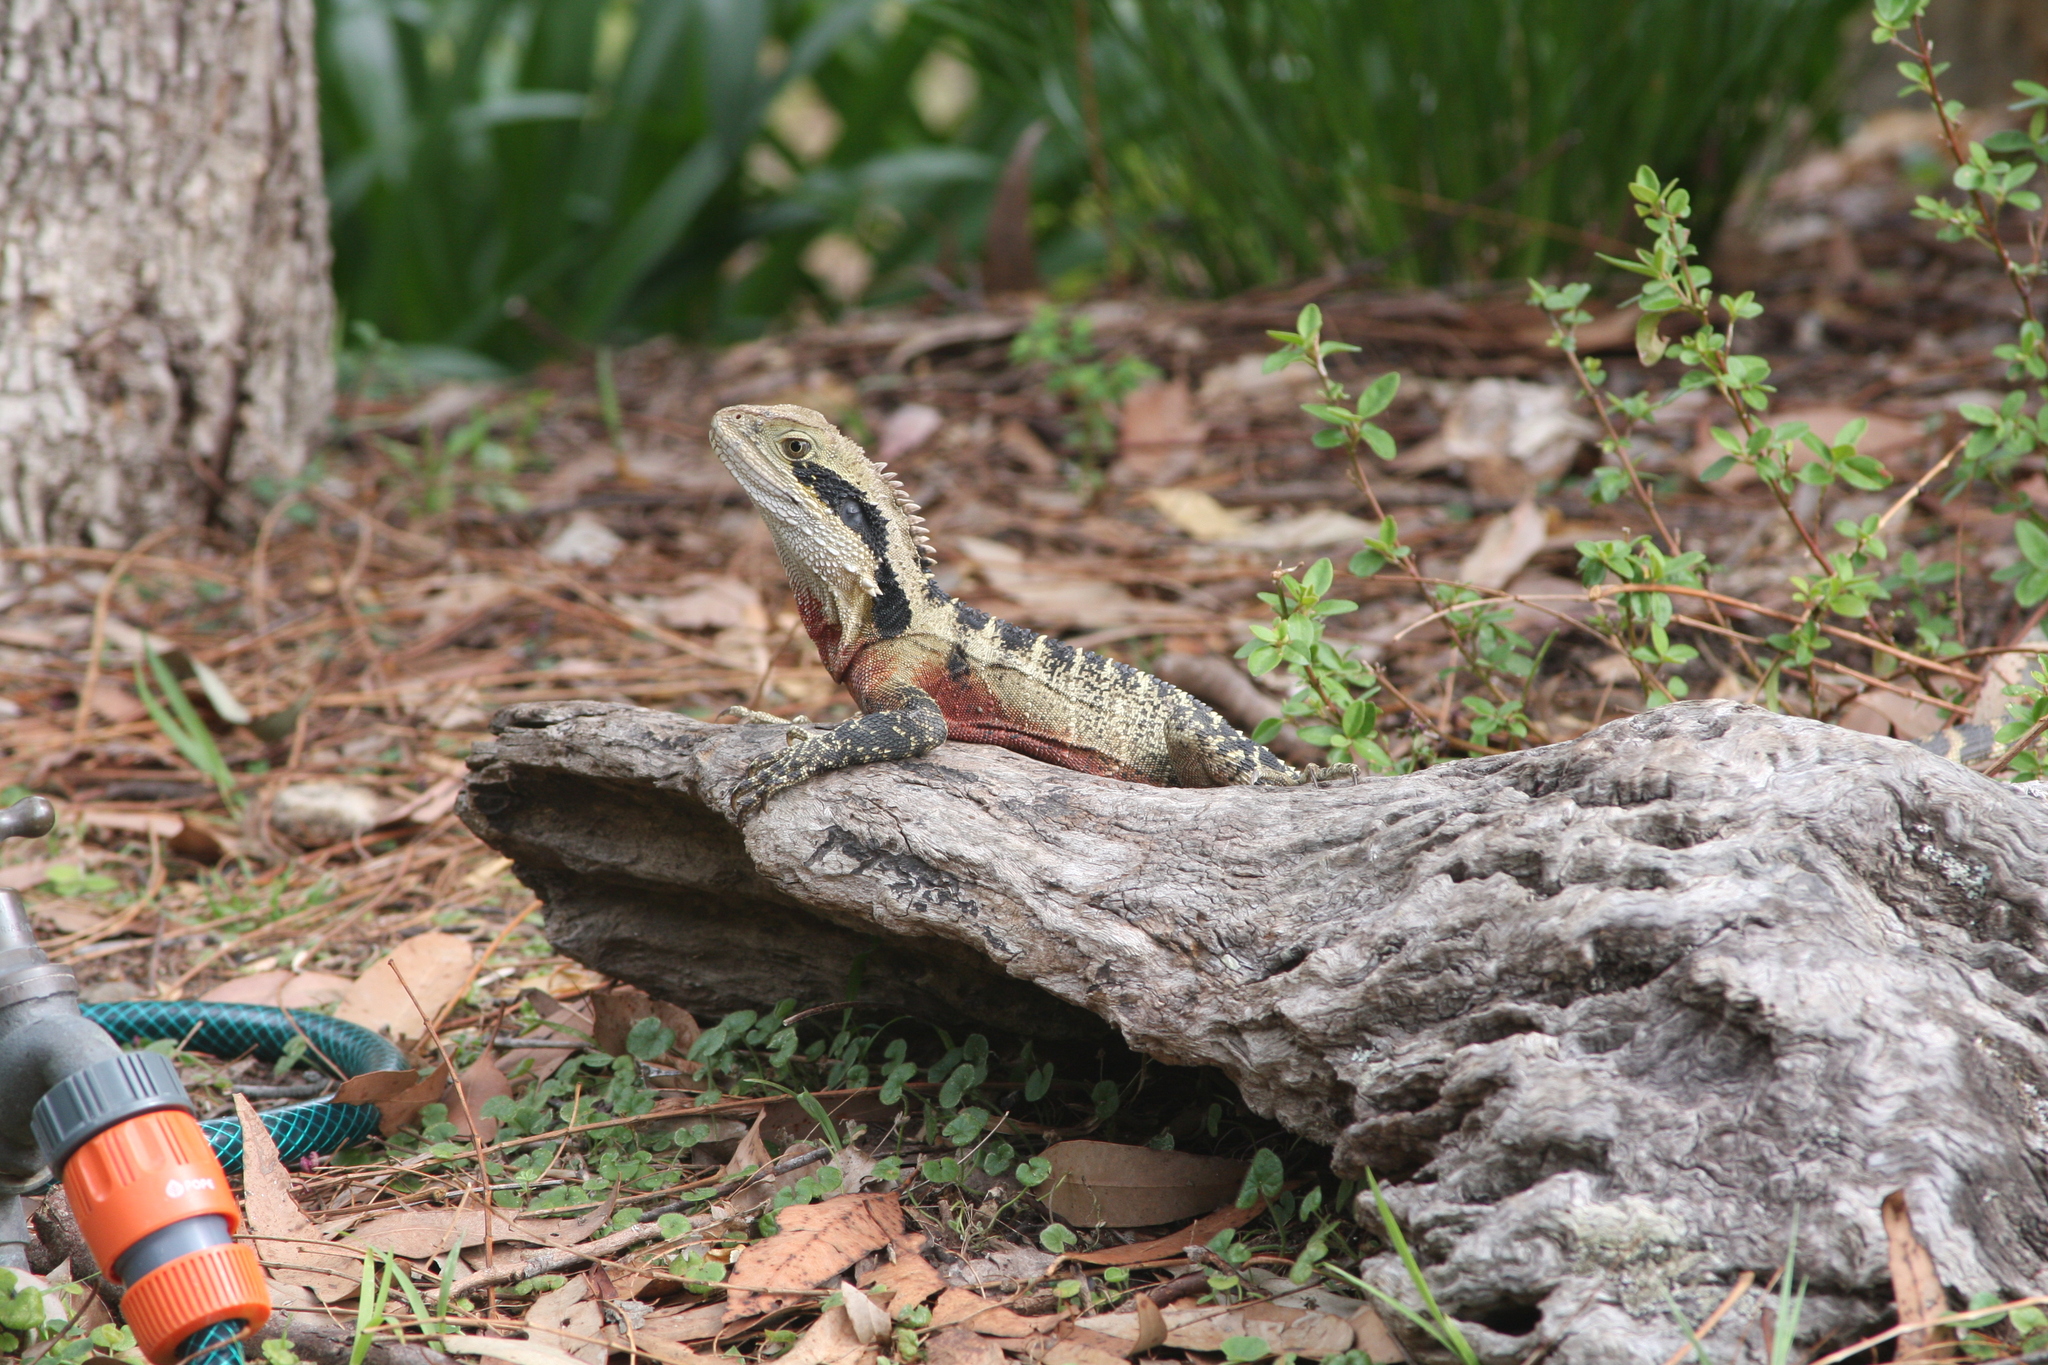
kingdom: Animalia
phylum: Chordata
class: Squamata
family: Agamidae
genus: Intellagama
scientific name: Intellagama lesueurii
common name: Eastern water dragon
